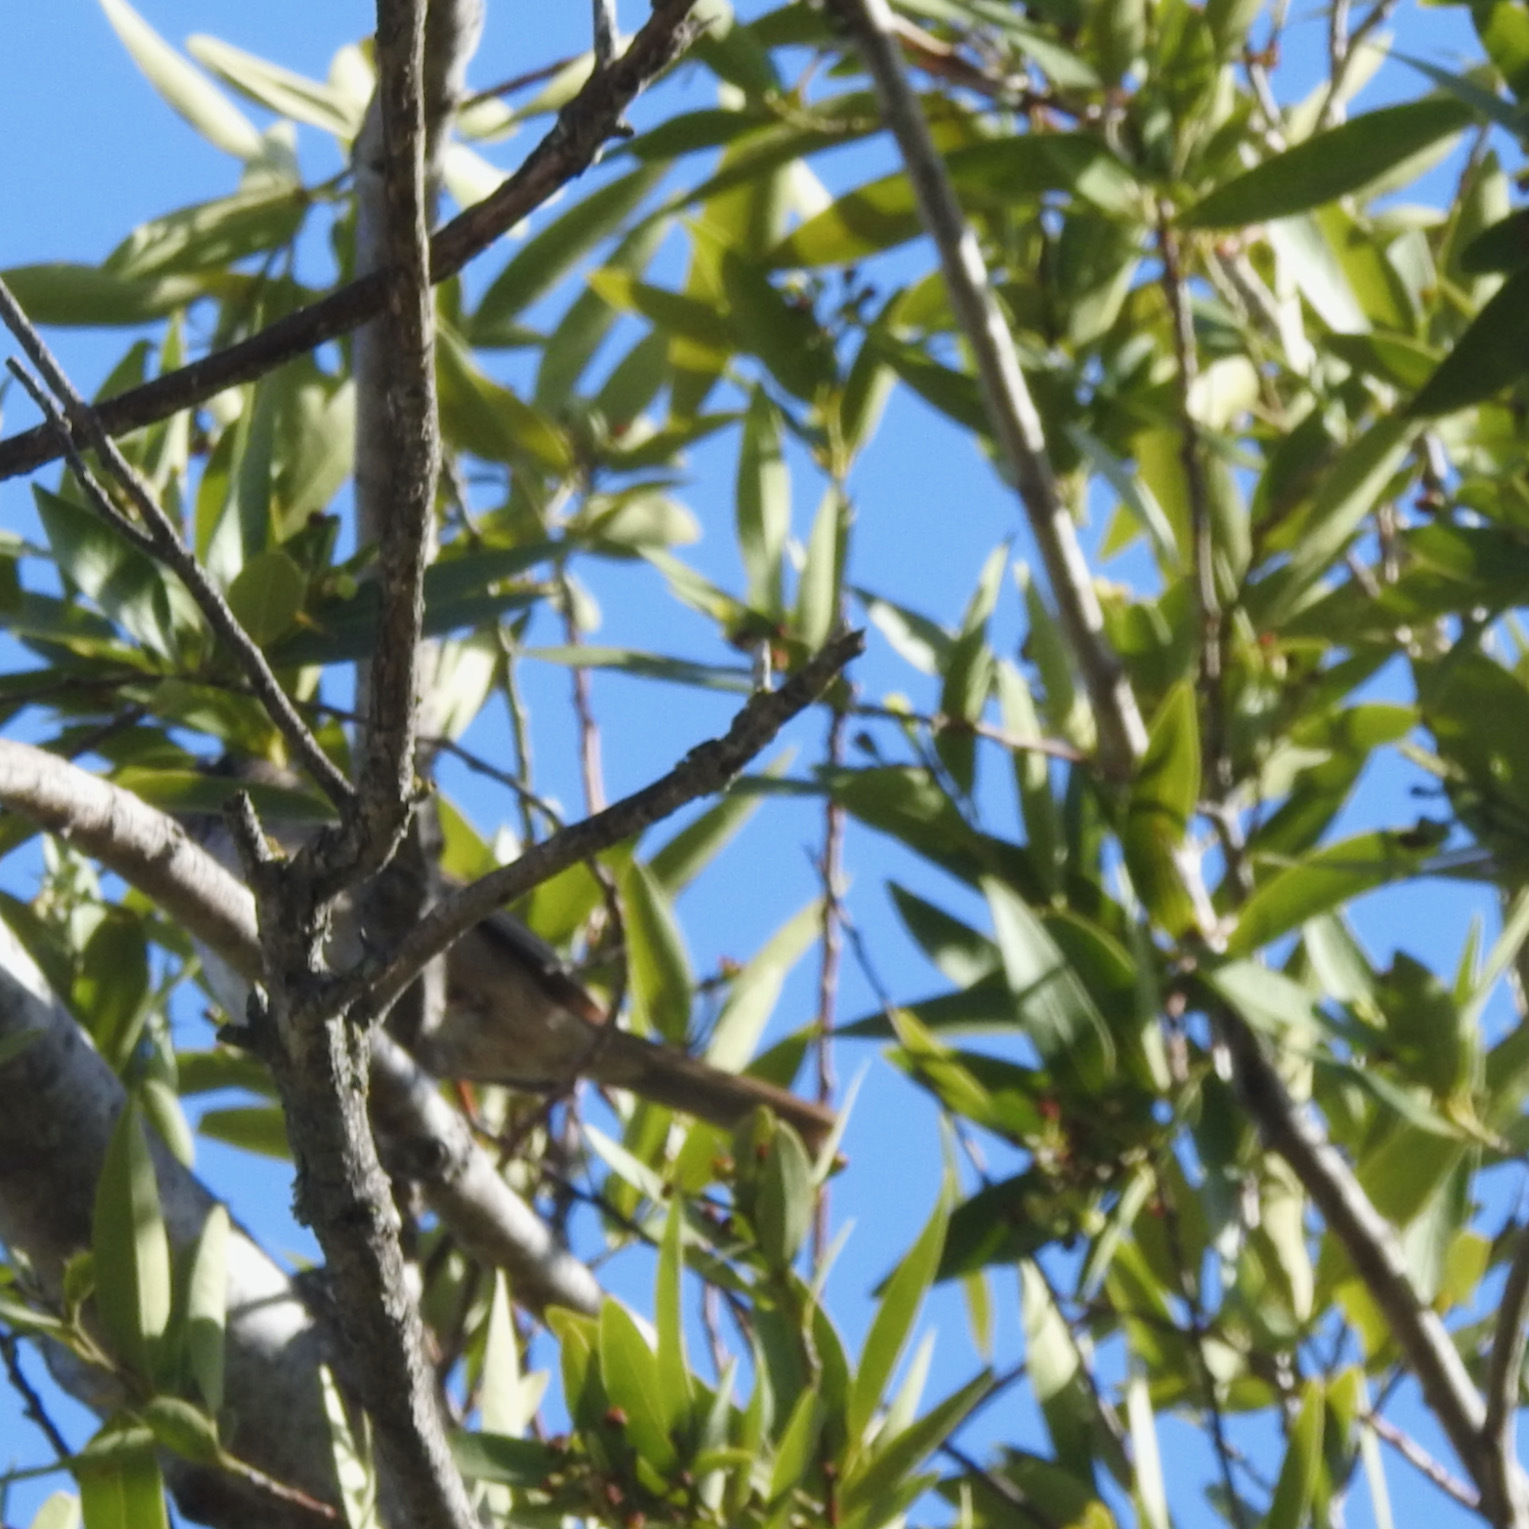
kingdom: Animalia
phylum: Chordata
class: Aves
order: Passeriformes
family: Passerellidae
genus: Zonotrichia
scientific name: Zonotrichia leucophrys
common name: White-crowned sparrow
